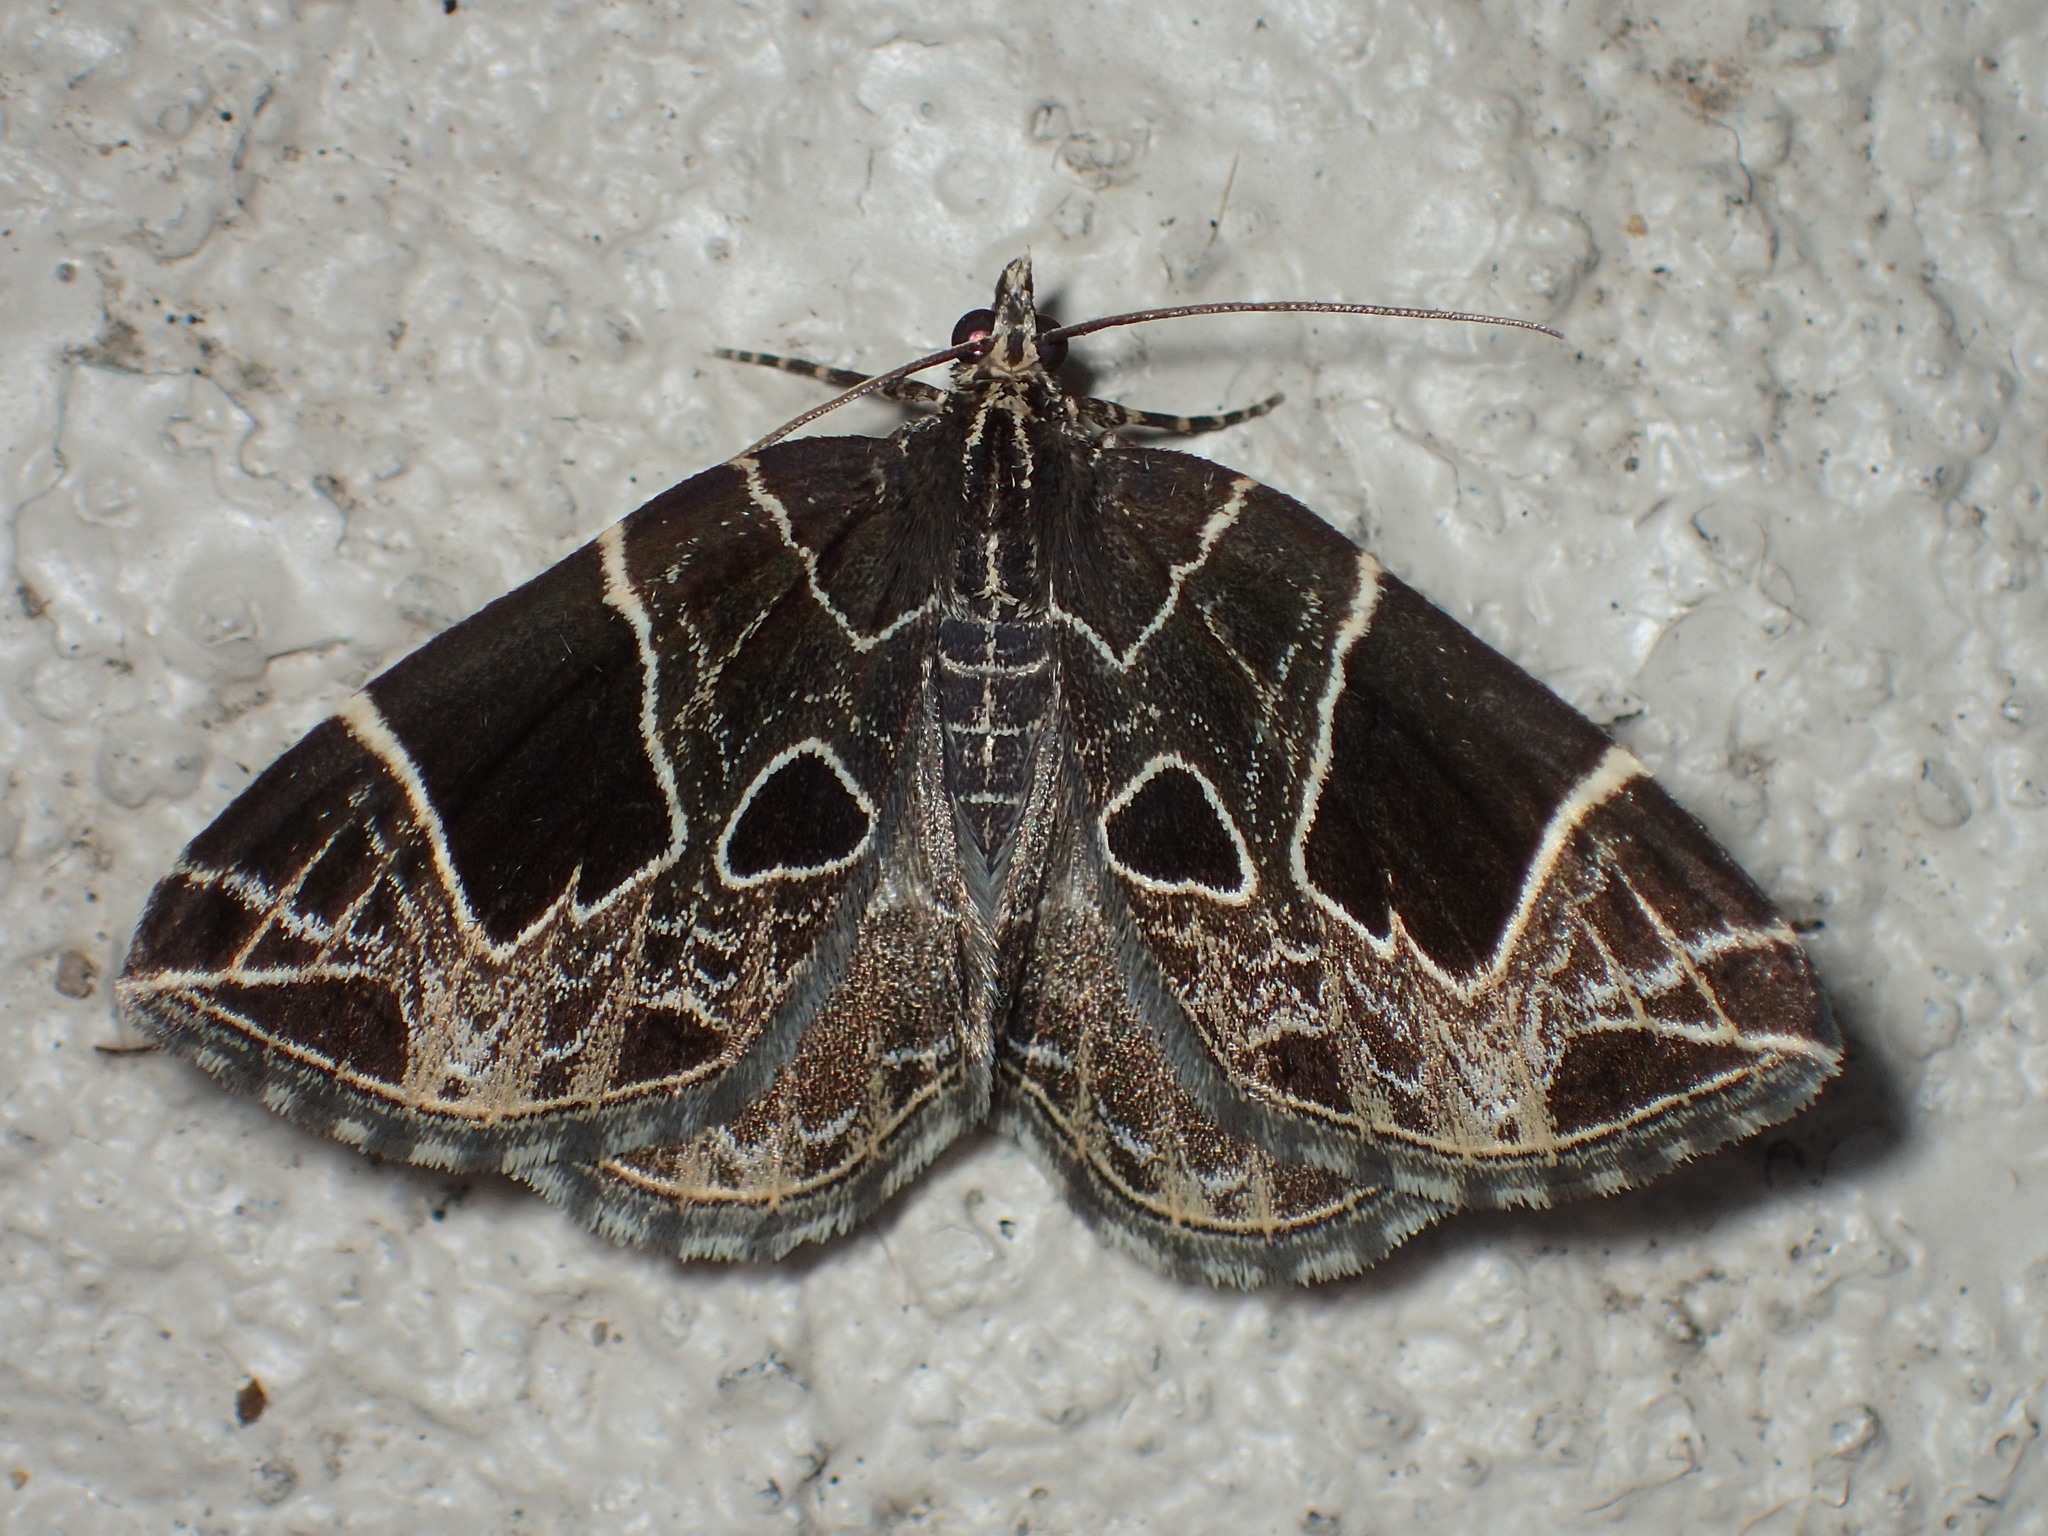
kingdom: Animalia
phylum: Arthropoda
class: Insecta
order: Lepidoptera
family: Geometridae
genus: Ecliptopera
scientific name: Ecliptopera atricolorata
